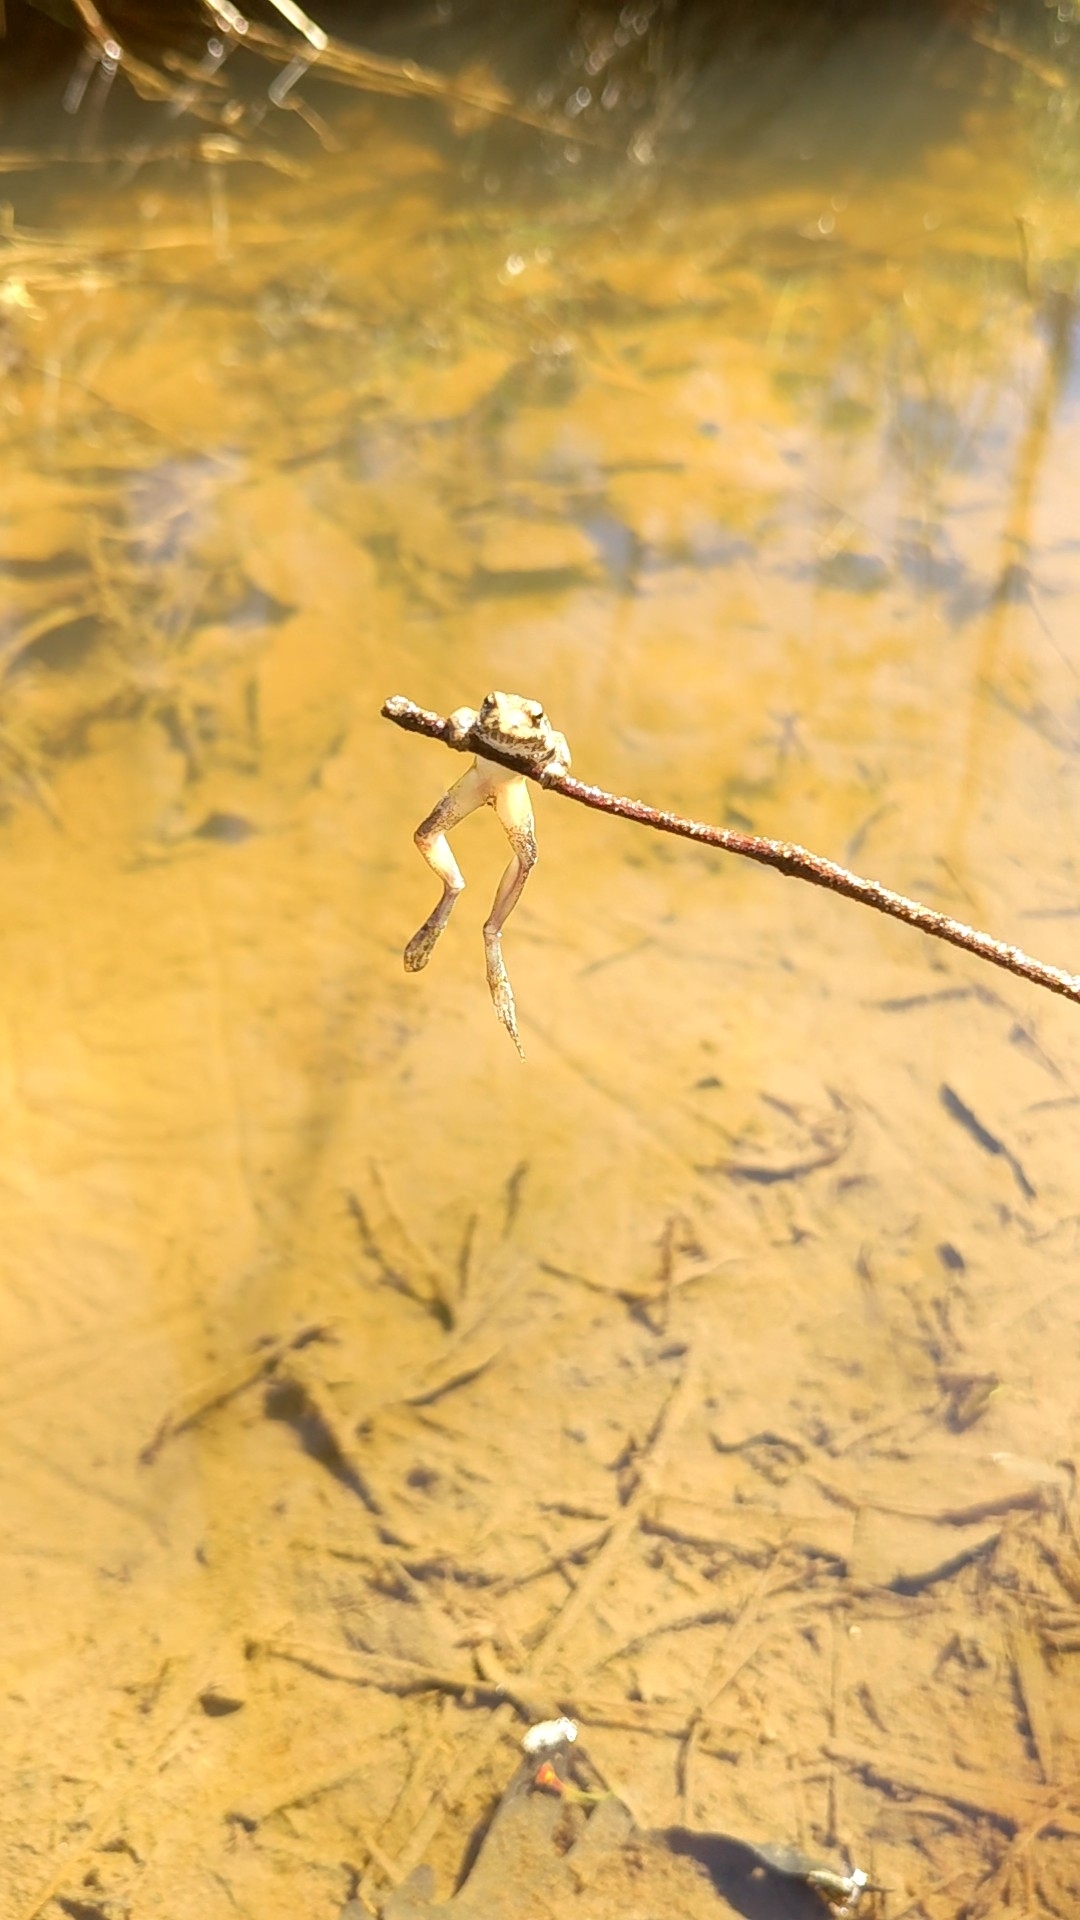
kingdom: Animalia
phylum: Chordata
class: Amphibia
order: Anura
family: Hylidae
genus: Acris
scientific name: Acris crepitans
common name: Northern cricket frog
